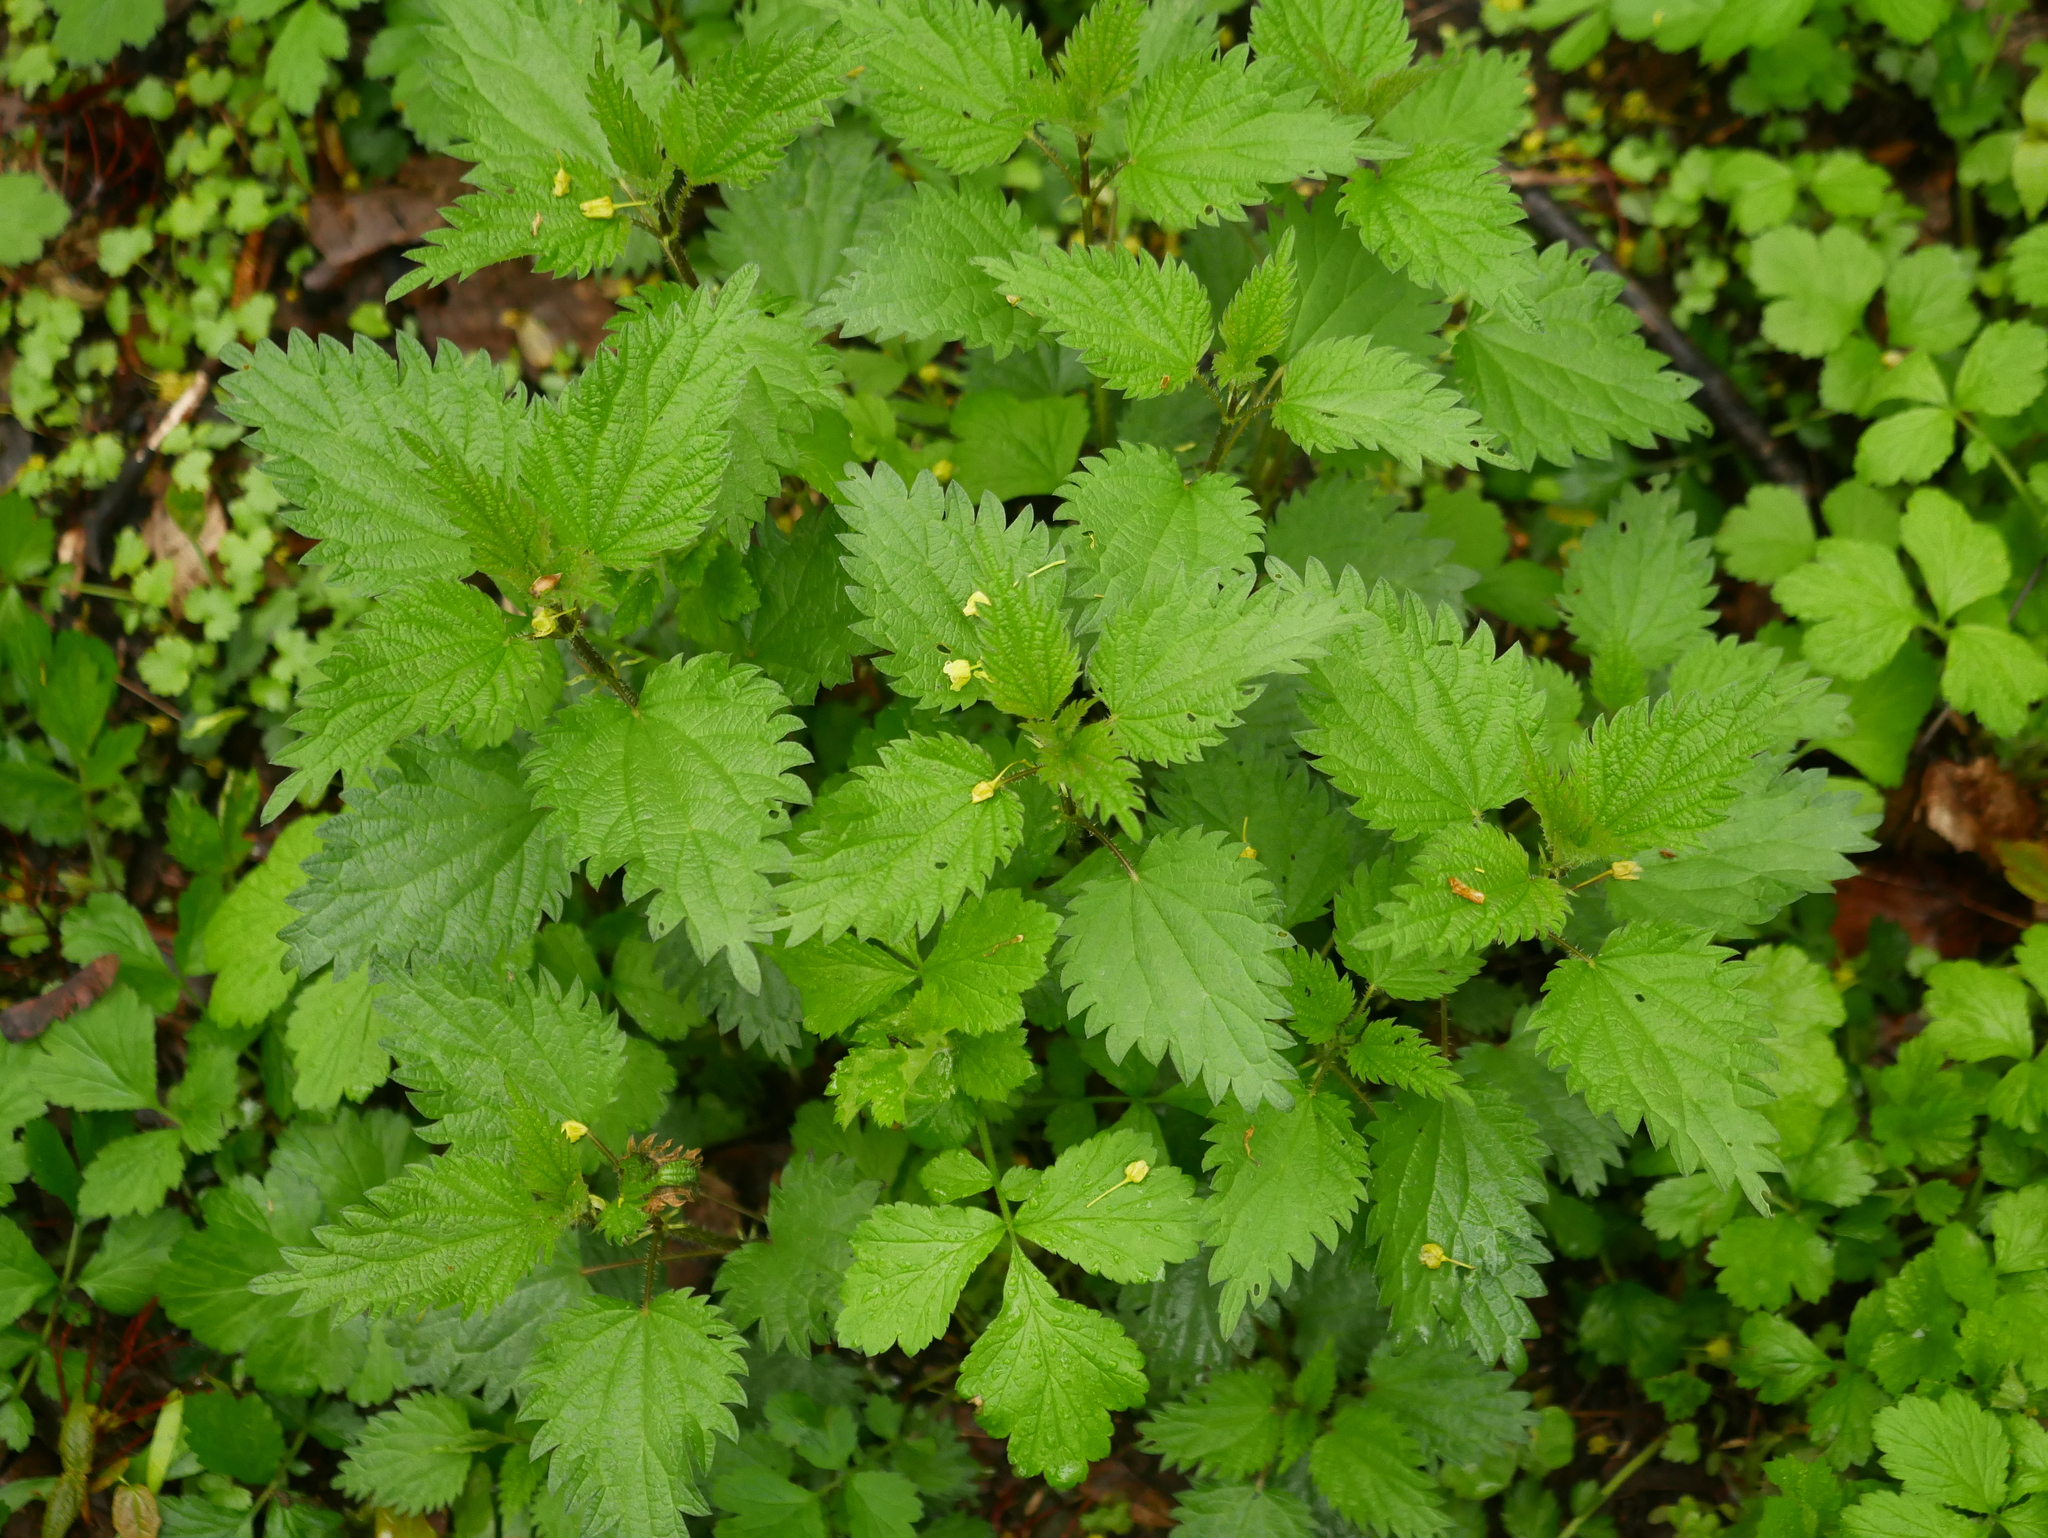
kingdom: Plantae
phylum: Tracheophyta
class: Magnoliopsida
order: Rosales
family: Urticaceae
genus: Urtica
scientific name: Urtica dioica
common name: Common nettle
